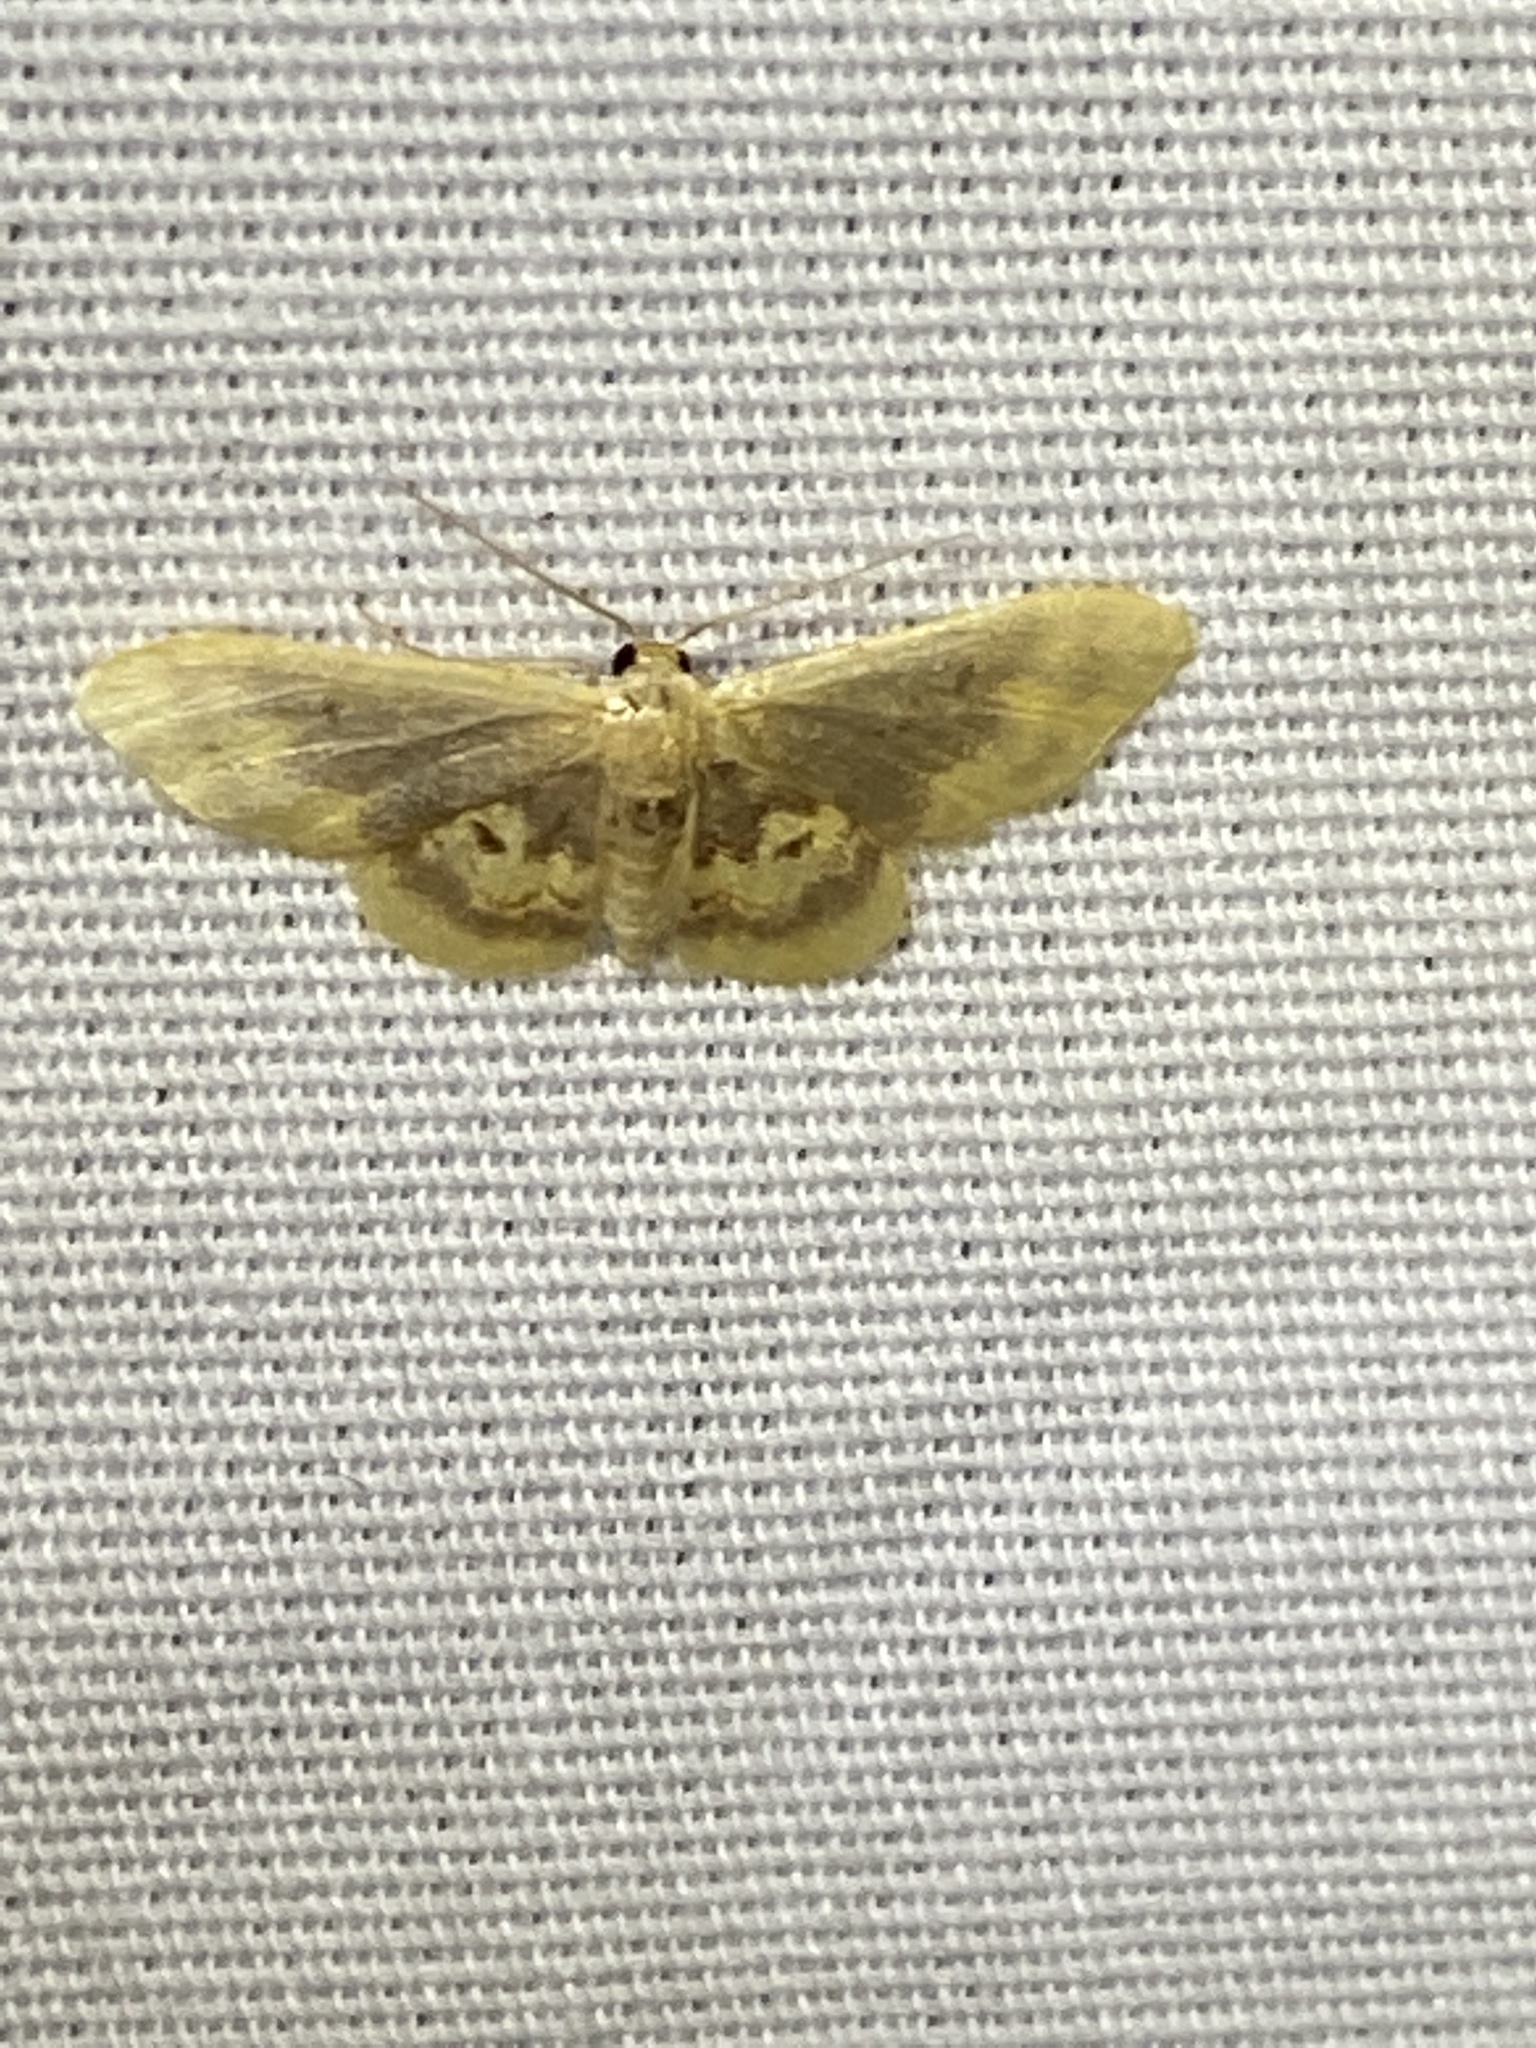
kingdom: Animalia
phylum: Arthropoda
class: Insecta
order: Lepidoptera
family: Geometridae
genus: Idaea
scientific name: Idaea scintillularia
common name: Diminutive wave
